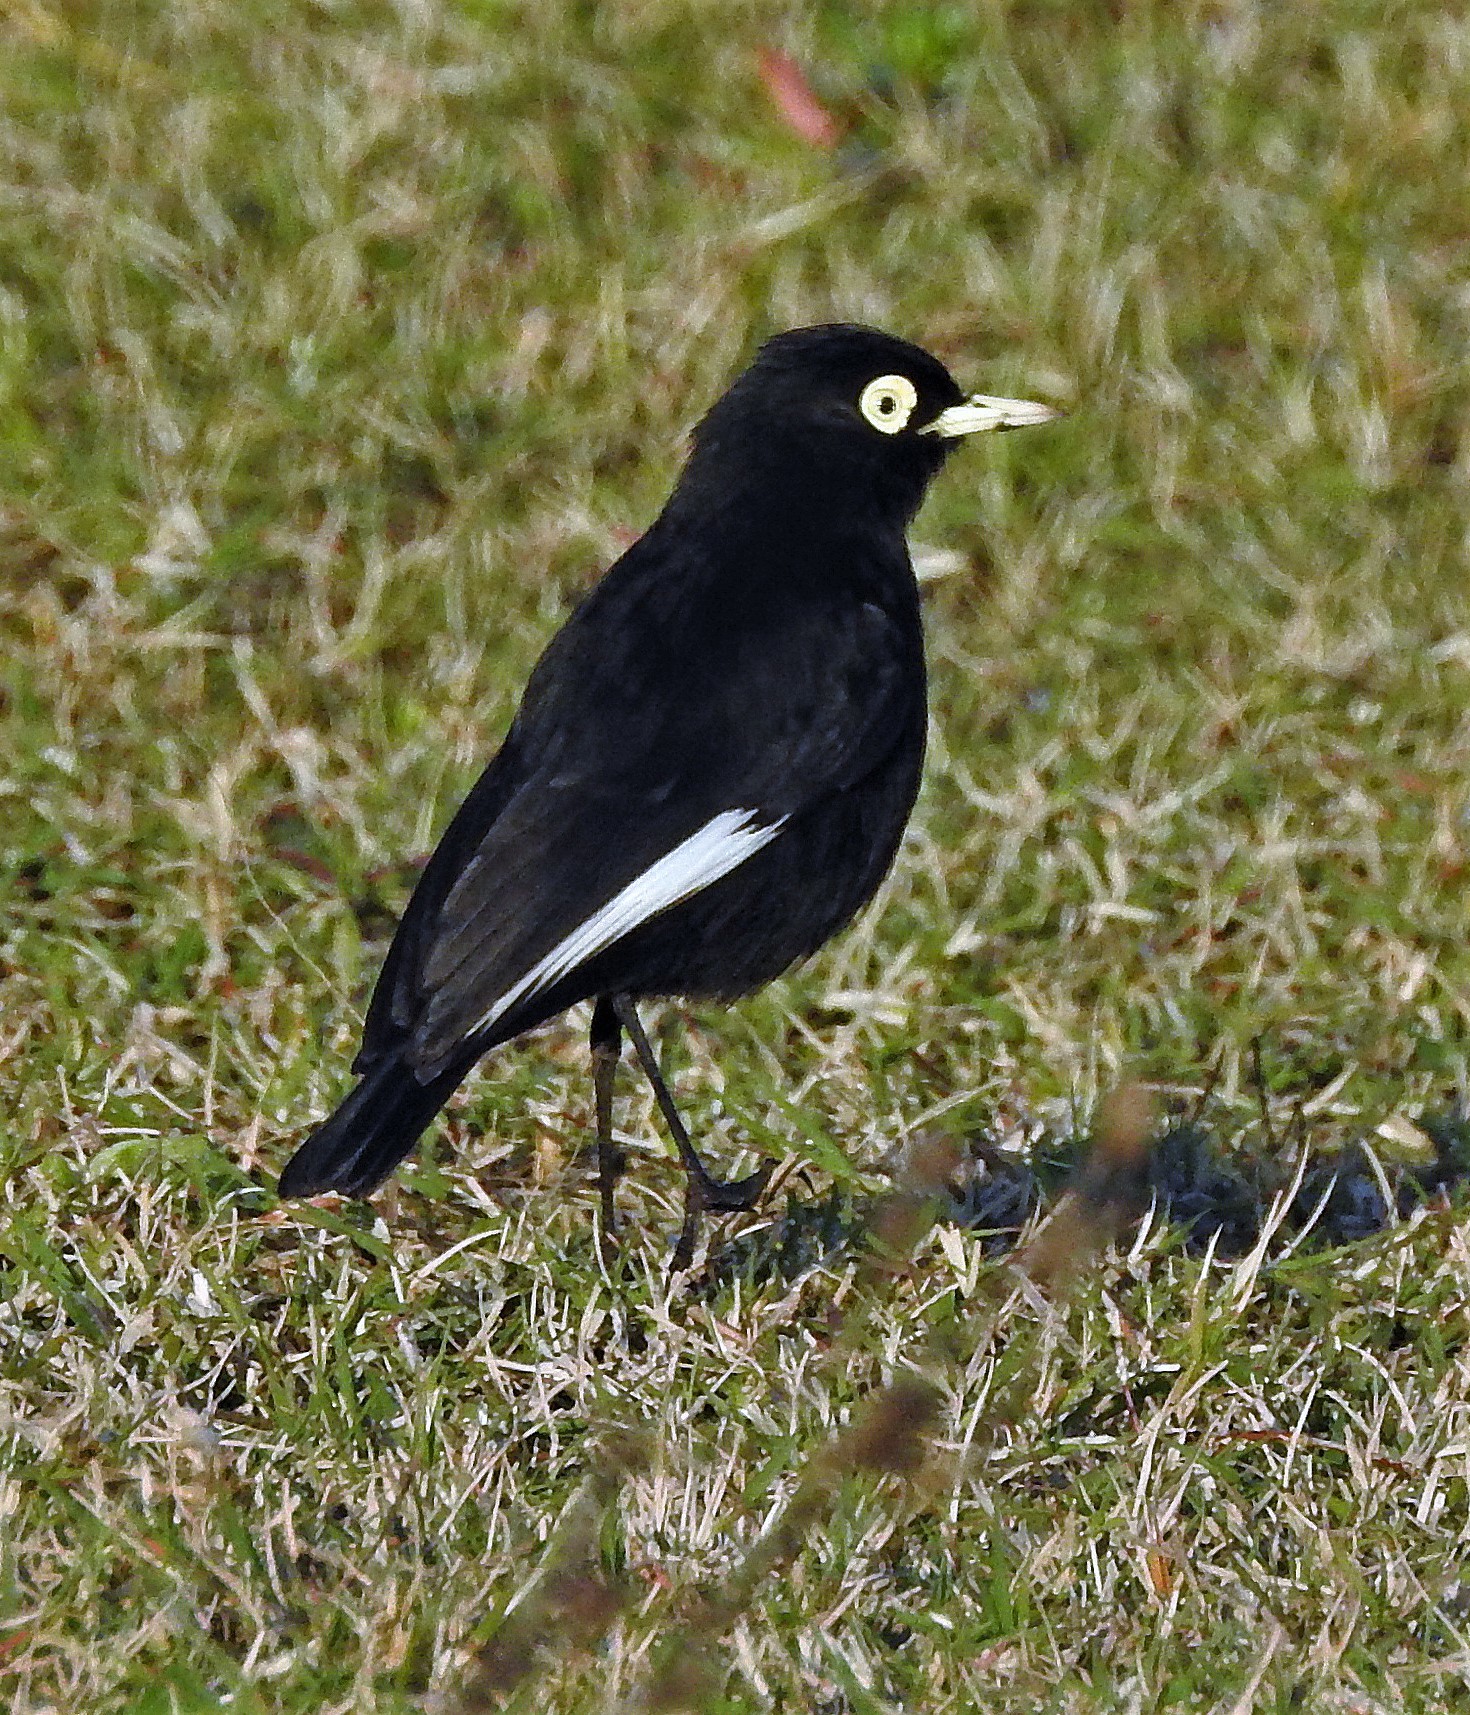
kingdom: Animalia
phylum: Chordata
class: Aves
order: Passeriformes
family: Tyrannidae
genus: Hymenops
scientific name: Hymenops perspicillatus
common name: Spectacled tyrant
